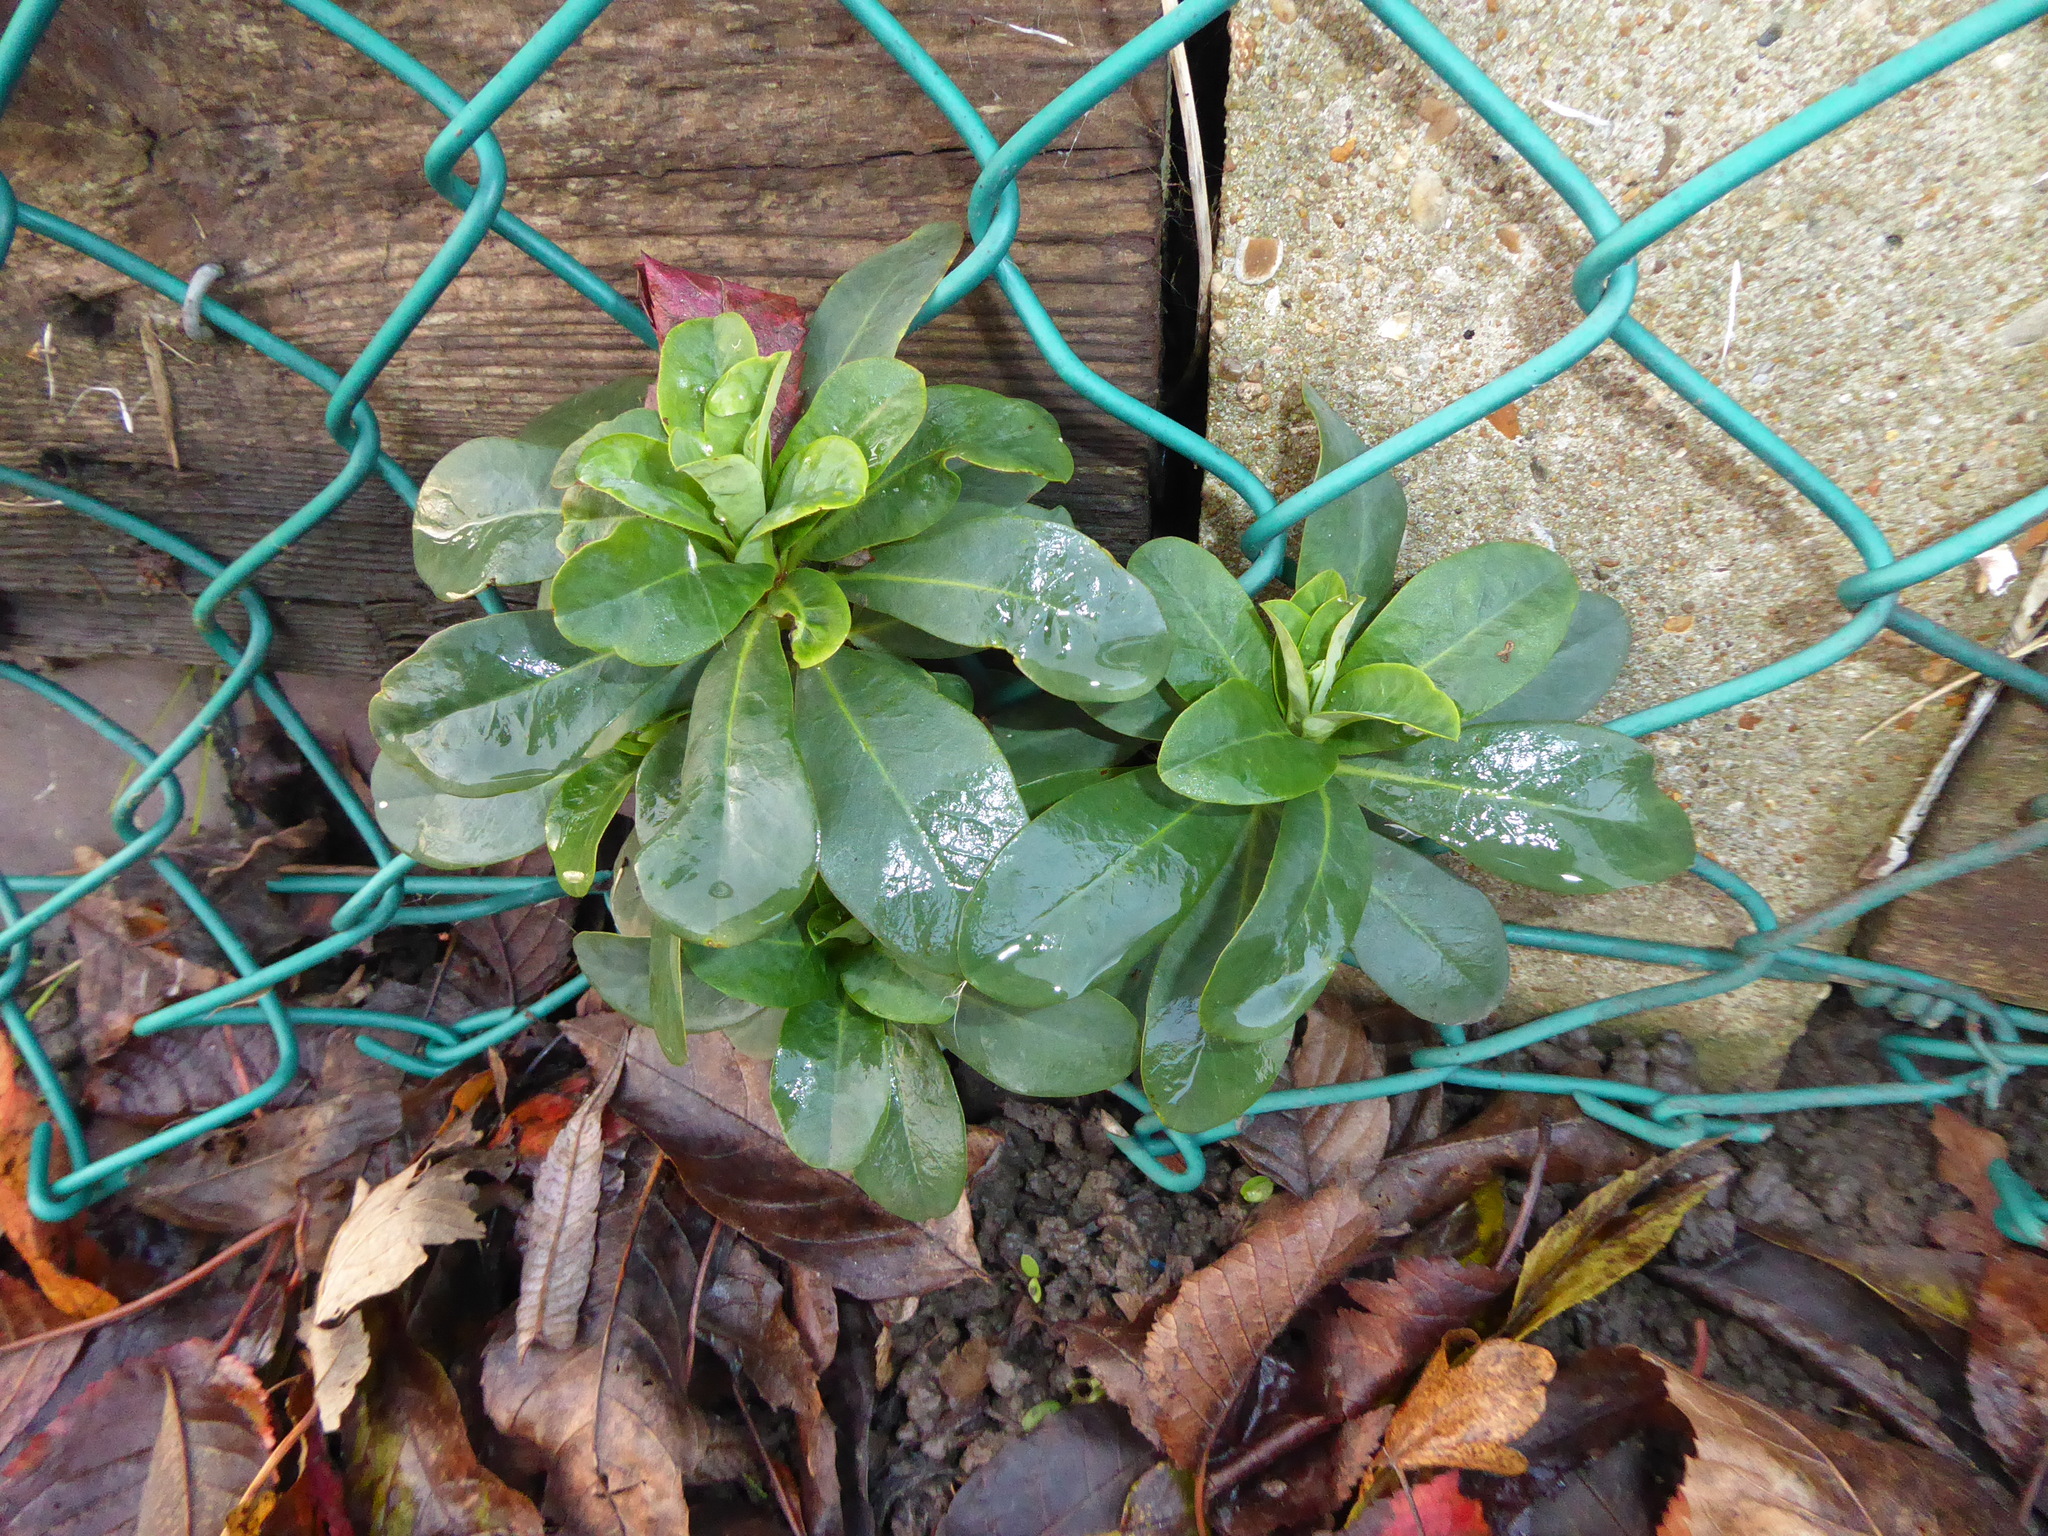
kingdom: Plantae
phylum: Tracheophyta
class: Magnoliopsida
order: Malpighiales
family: Euphorbiaceae
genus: Euphorbia
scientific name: Euphorbia amygdaloides
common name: Wood spurge
